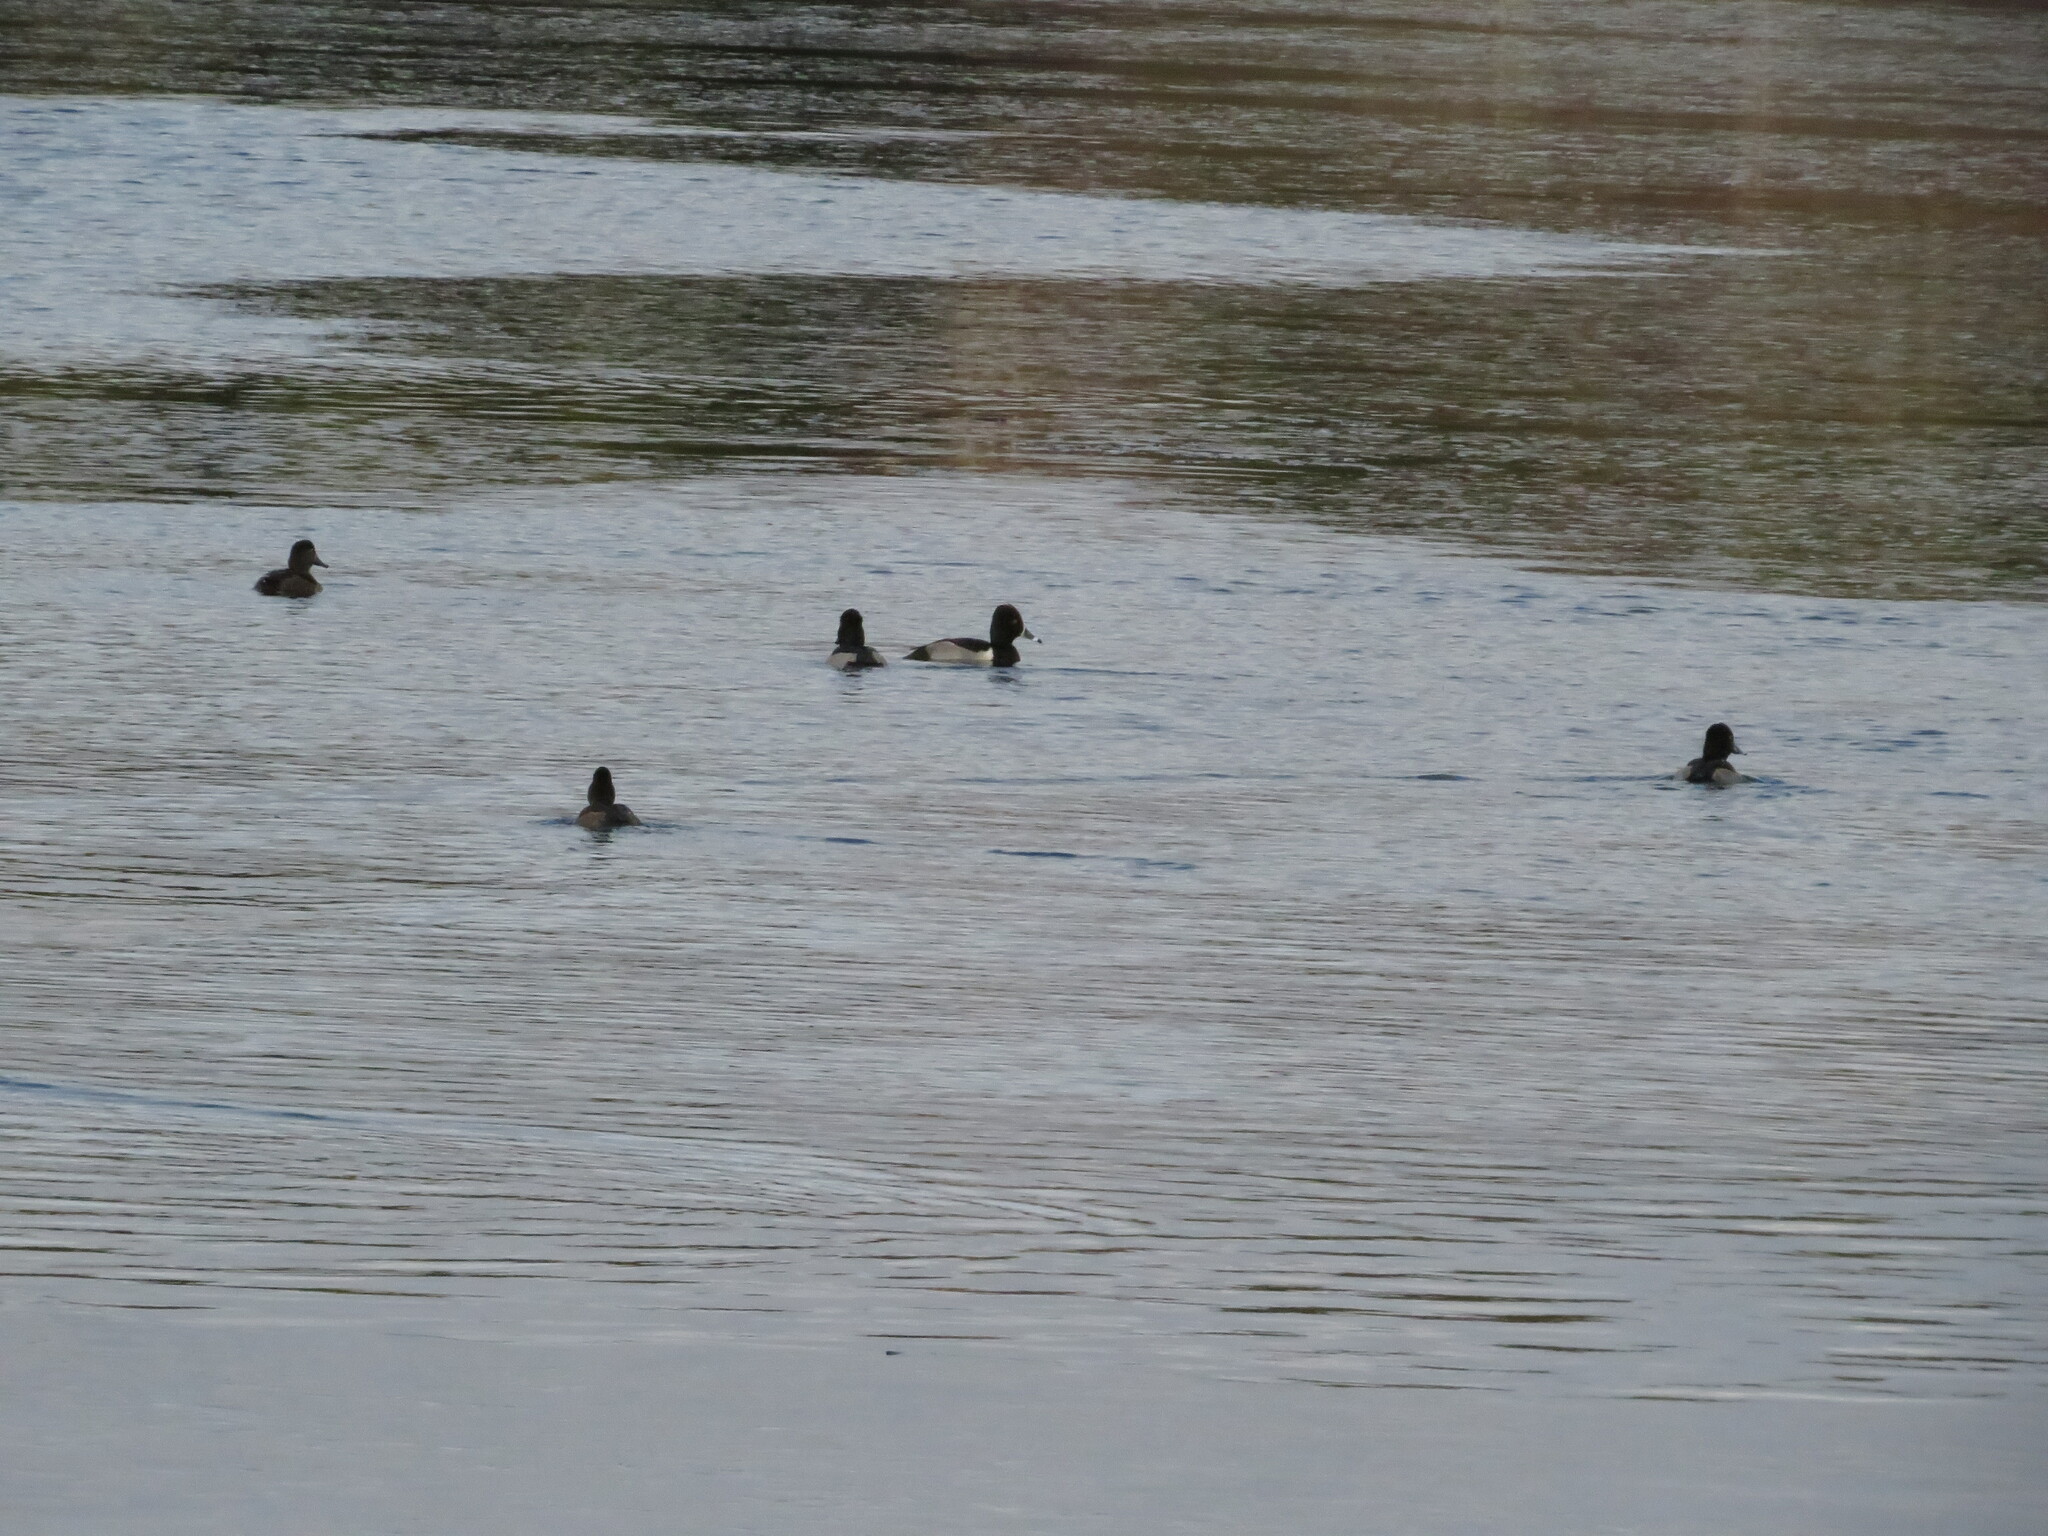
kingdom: Animalia
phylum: Chordata
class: Aves
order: Anseriformes
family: Anatidae
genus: Aythya
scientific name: Aythya collaris
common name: Ring-necked duck
